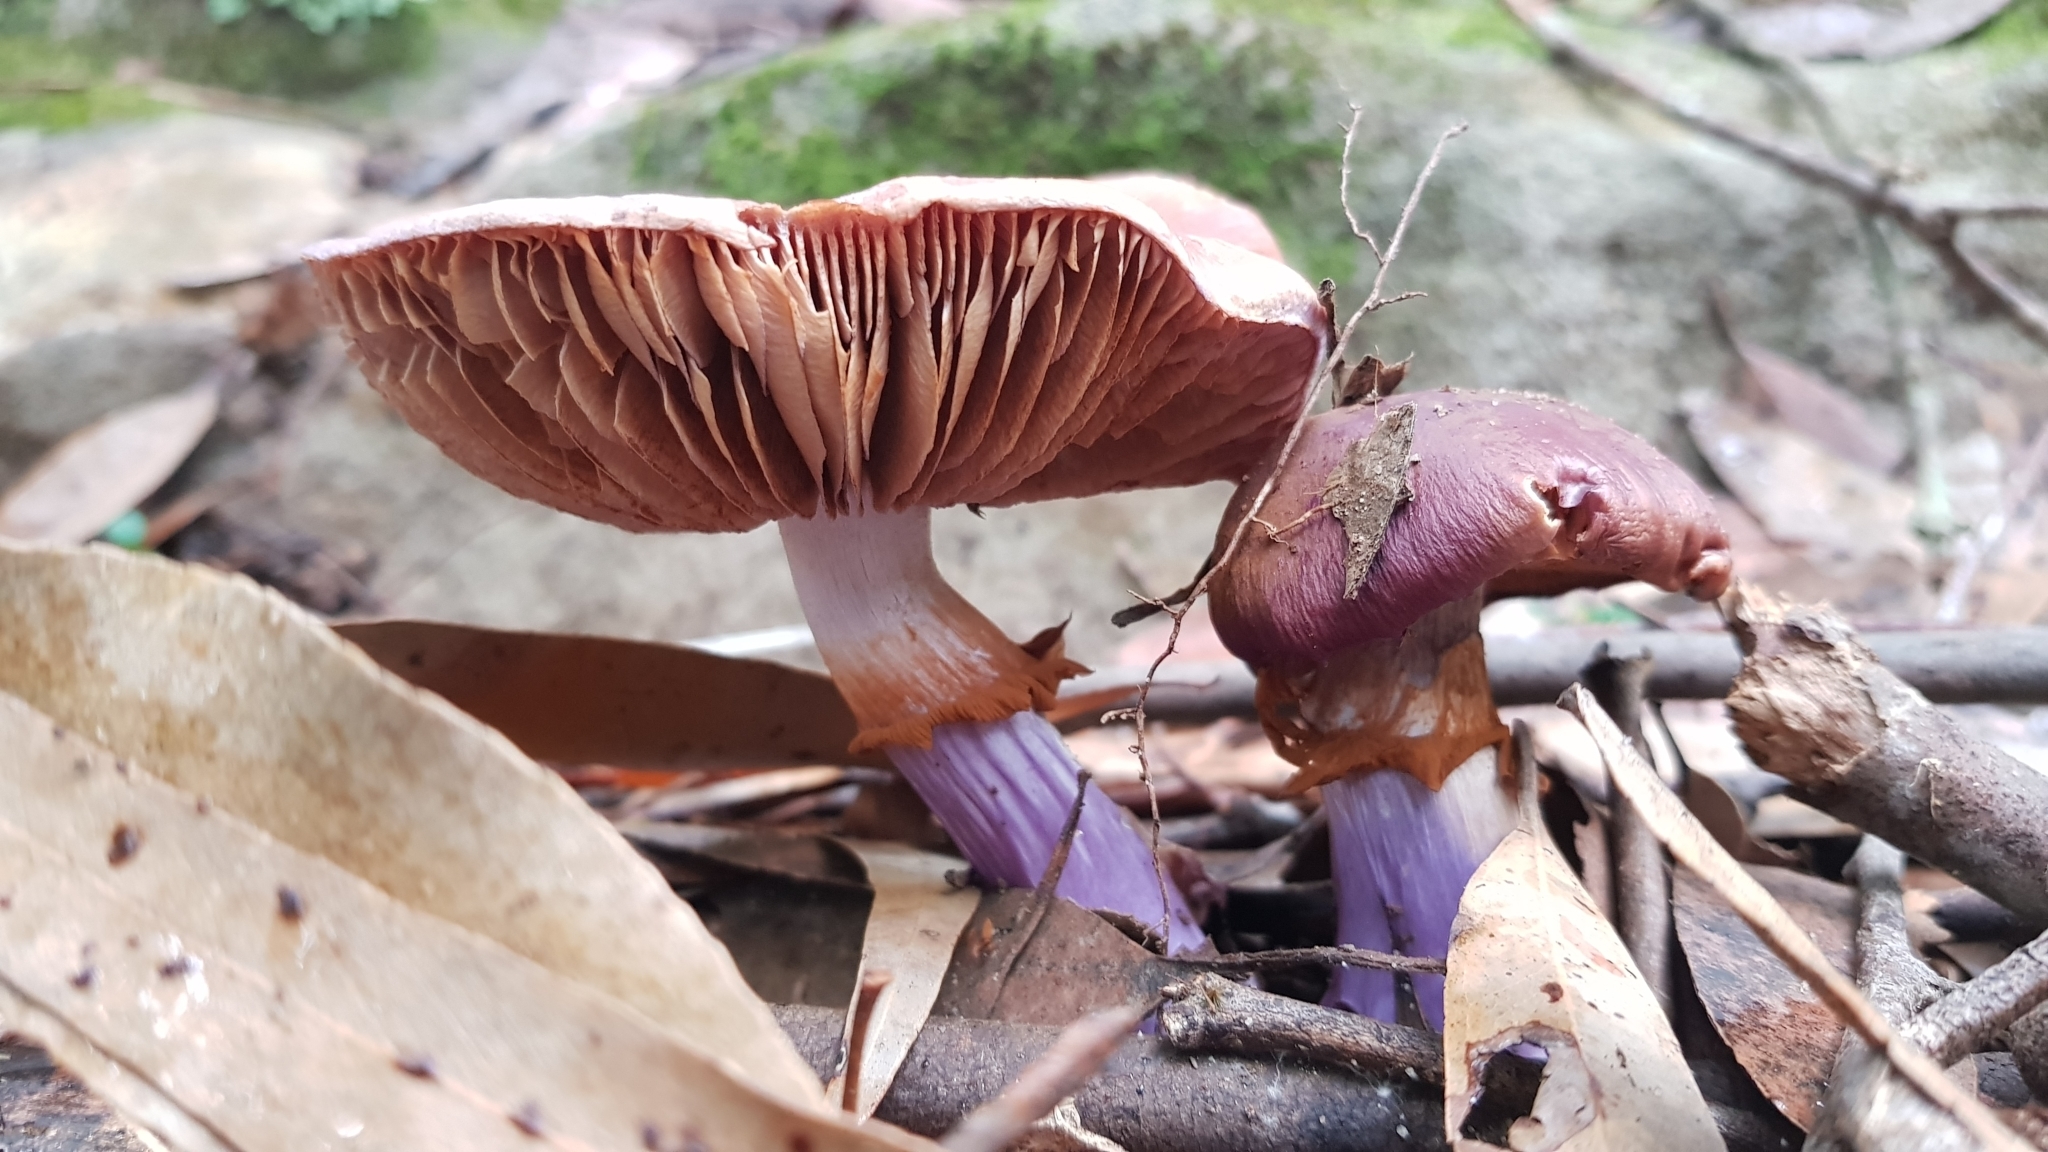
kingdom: Fungi
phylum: Basidiomycota
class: Agaricomycetes
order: Agaricales
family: Cortinariaceae
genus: Cortinarius
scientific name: Cortinarius archeri
